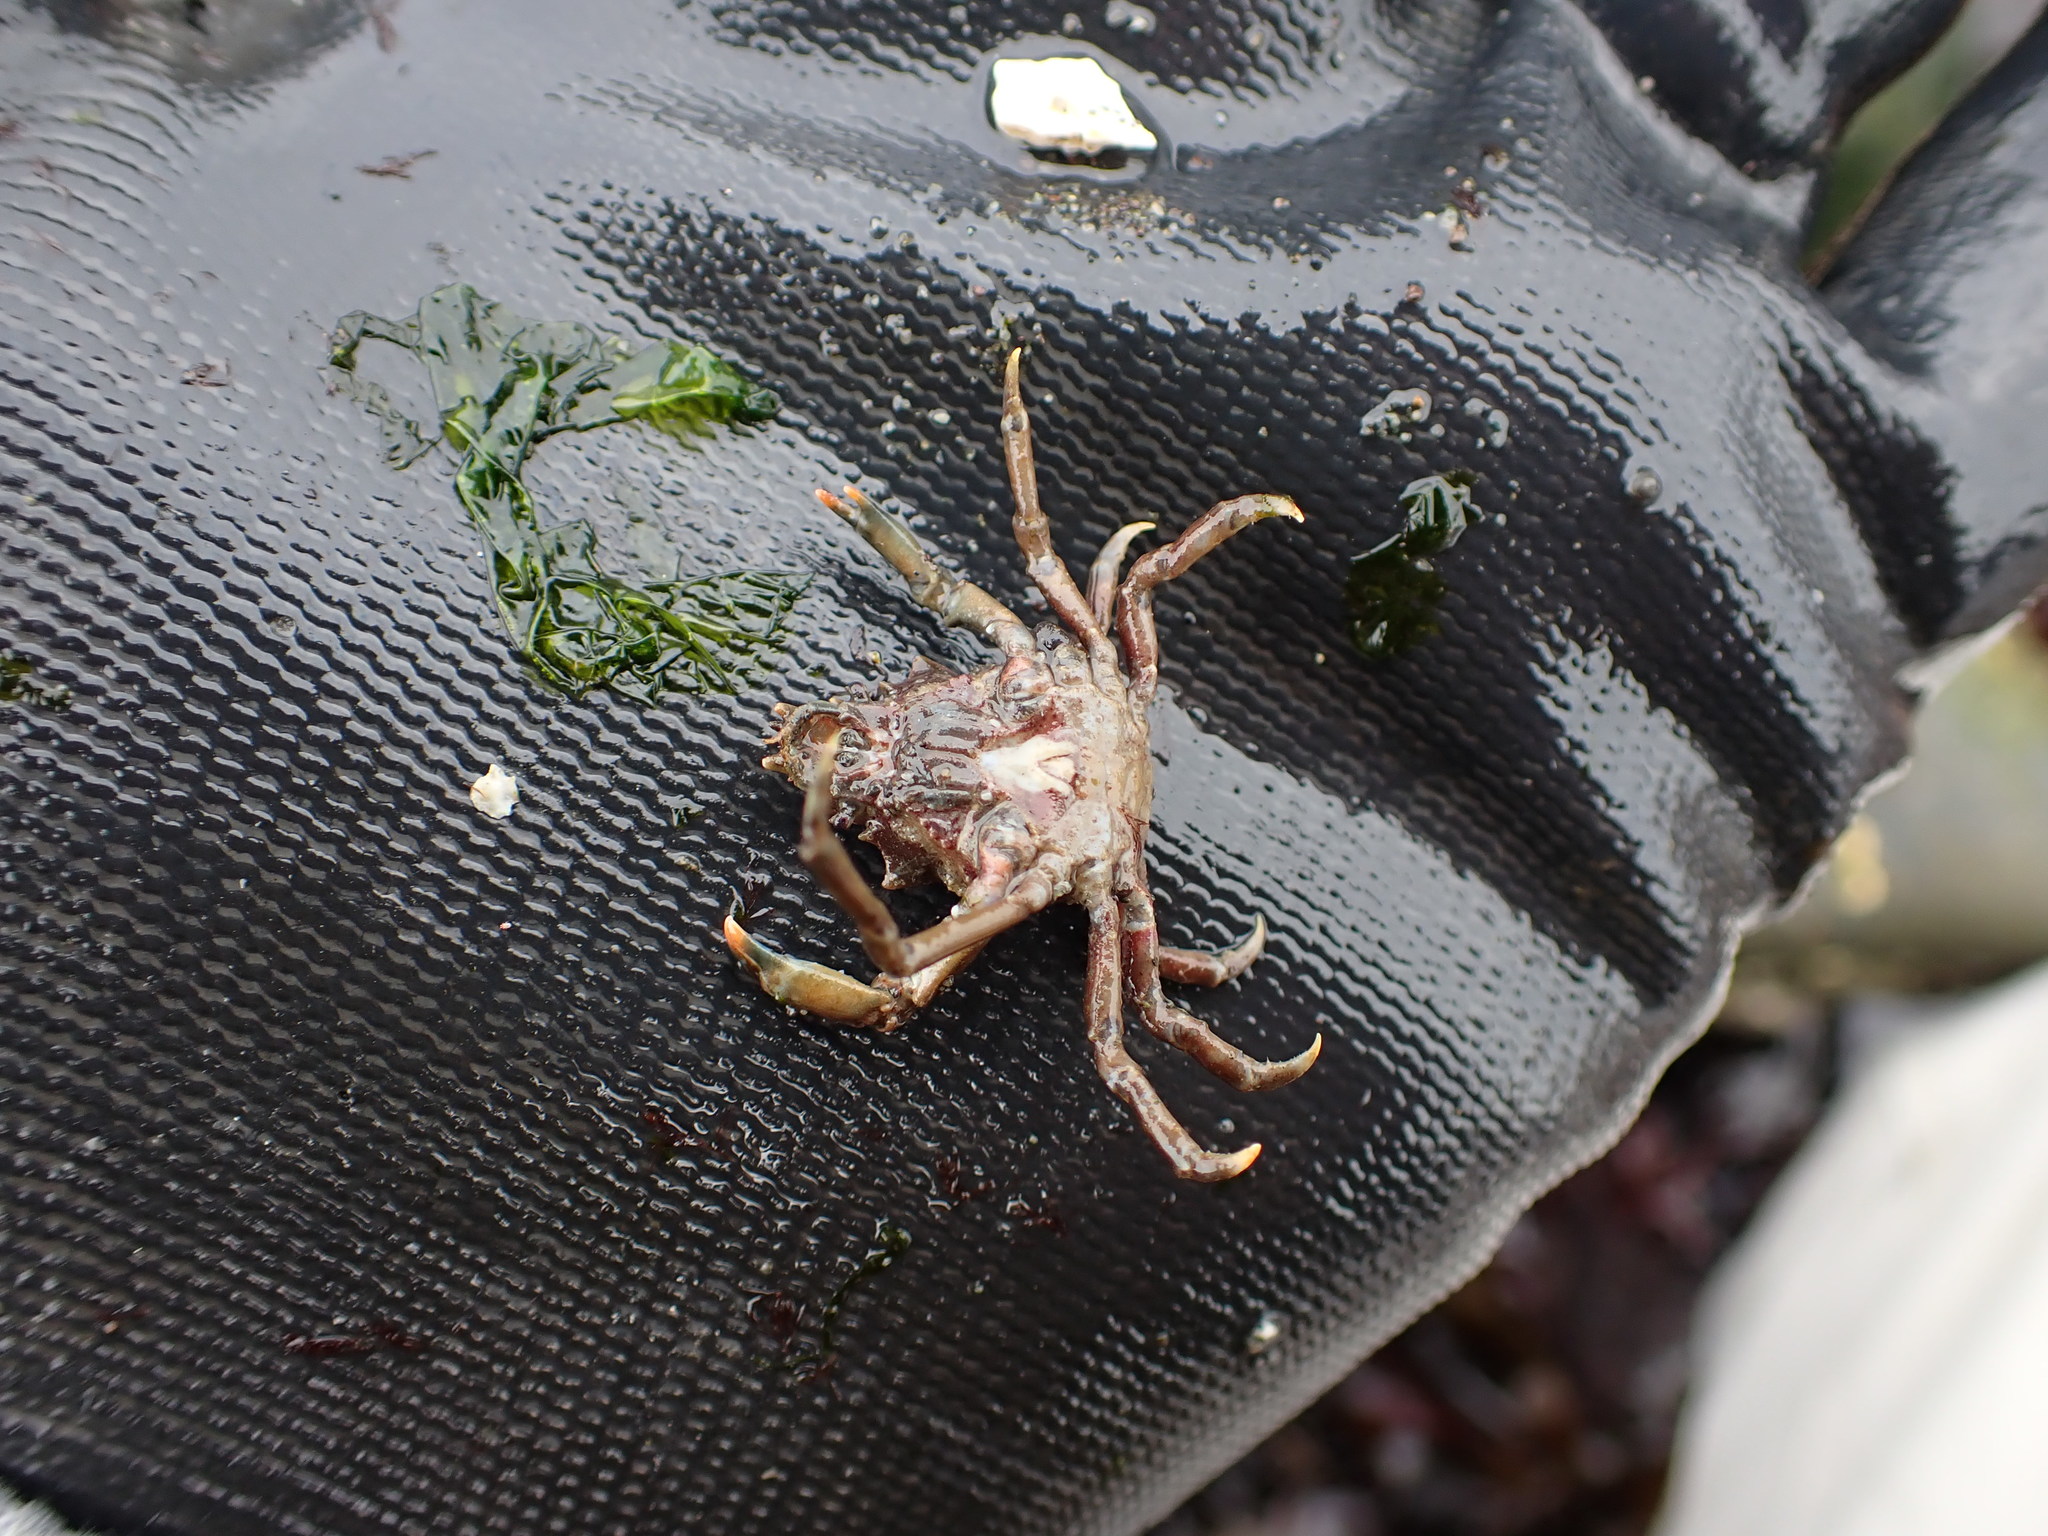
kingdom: Animalia
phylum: Arthropoda
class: Malacostraca
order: Decapoda
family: Epialtidae
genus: Pugettia
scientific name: Pugettia gracilis
